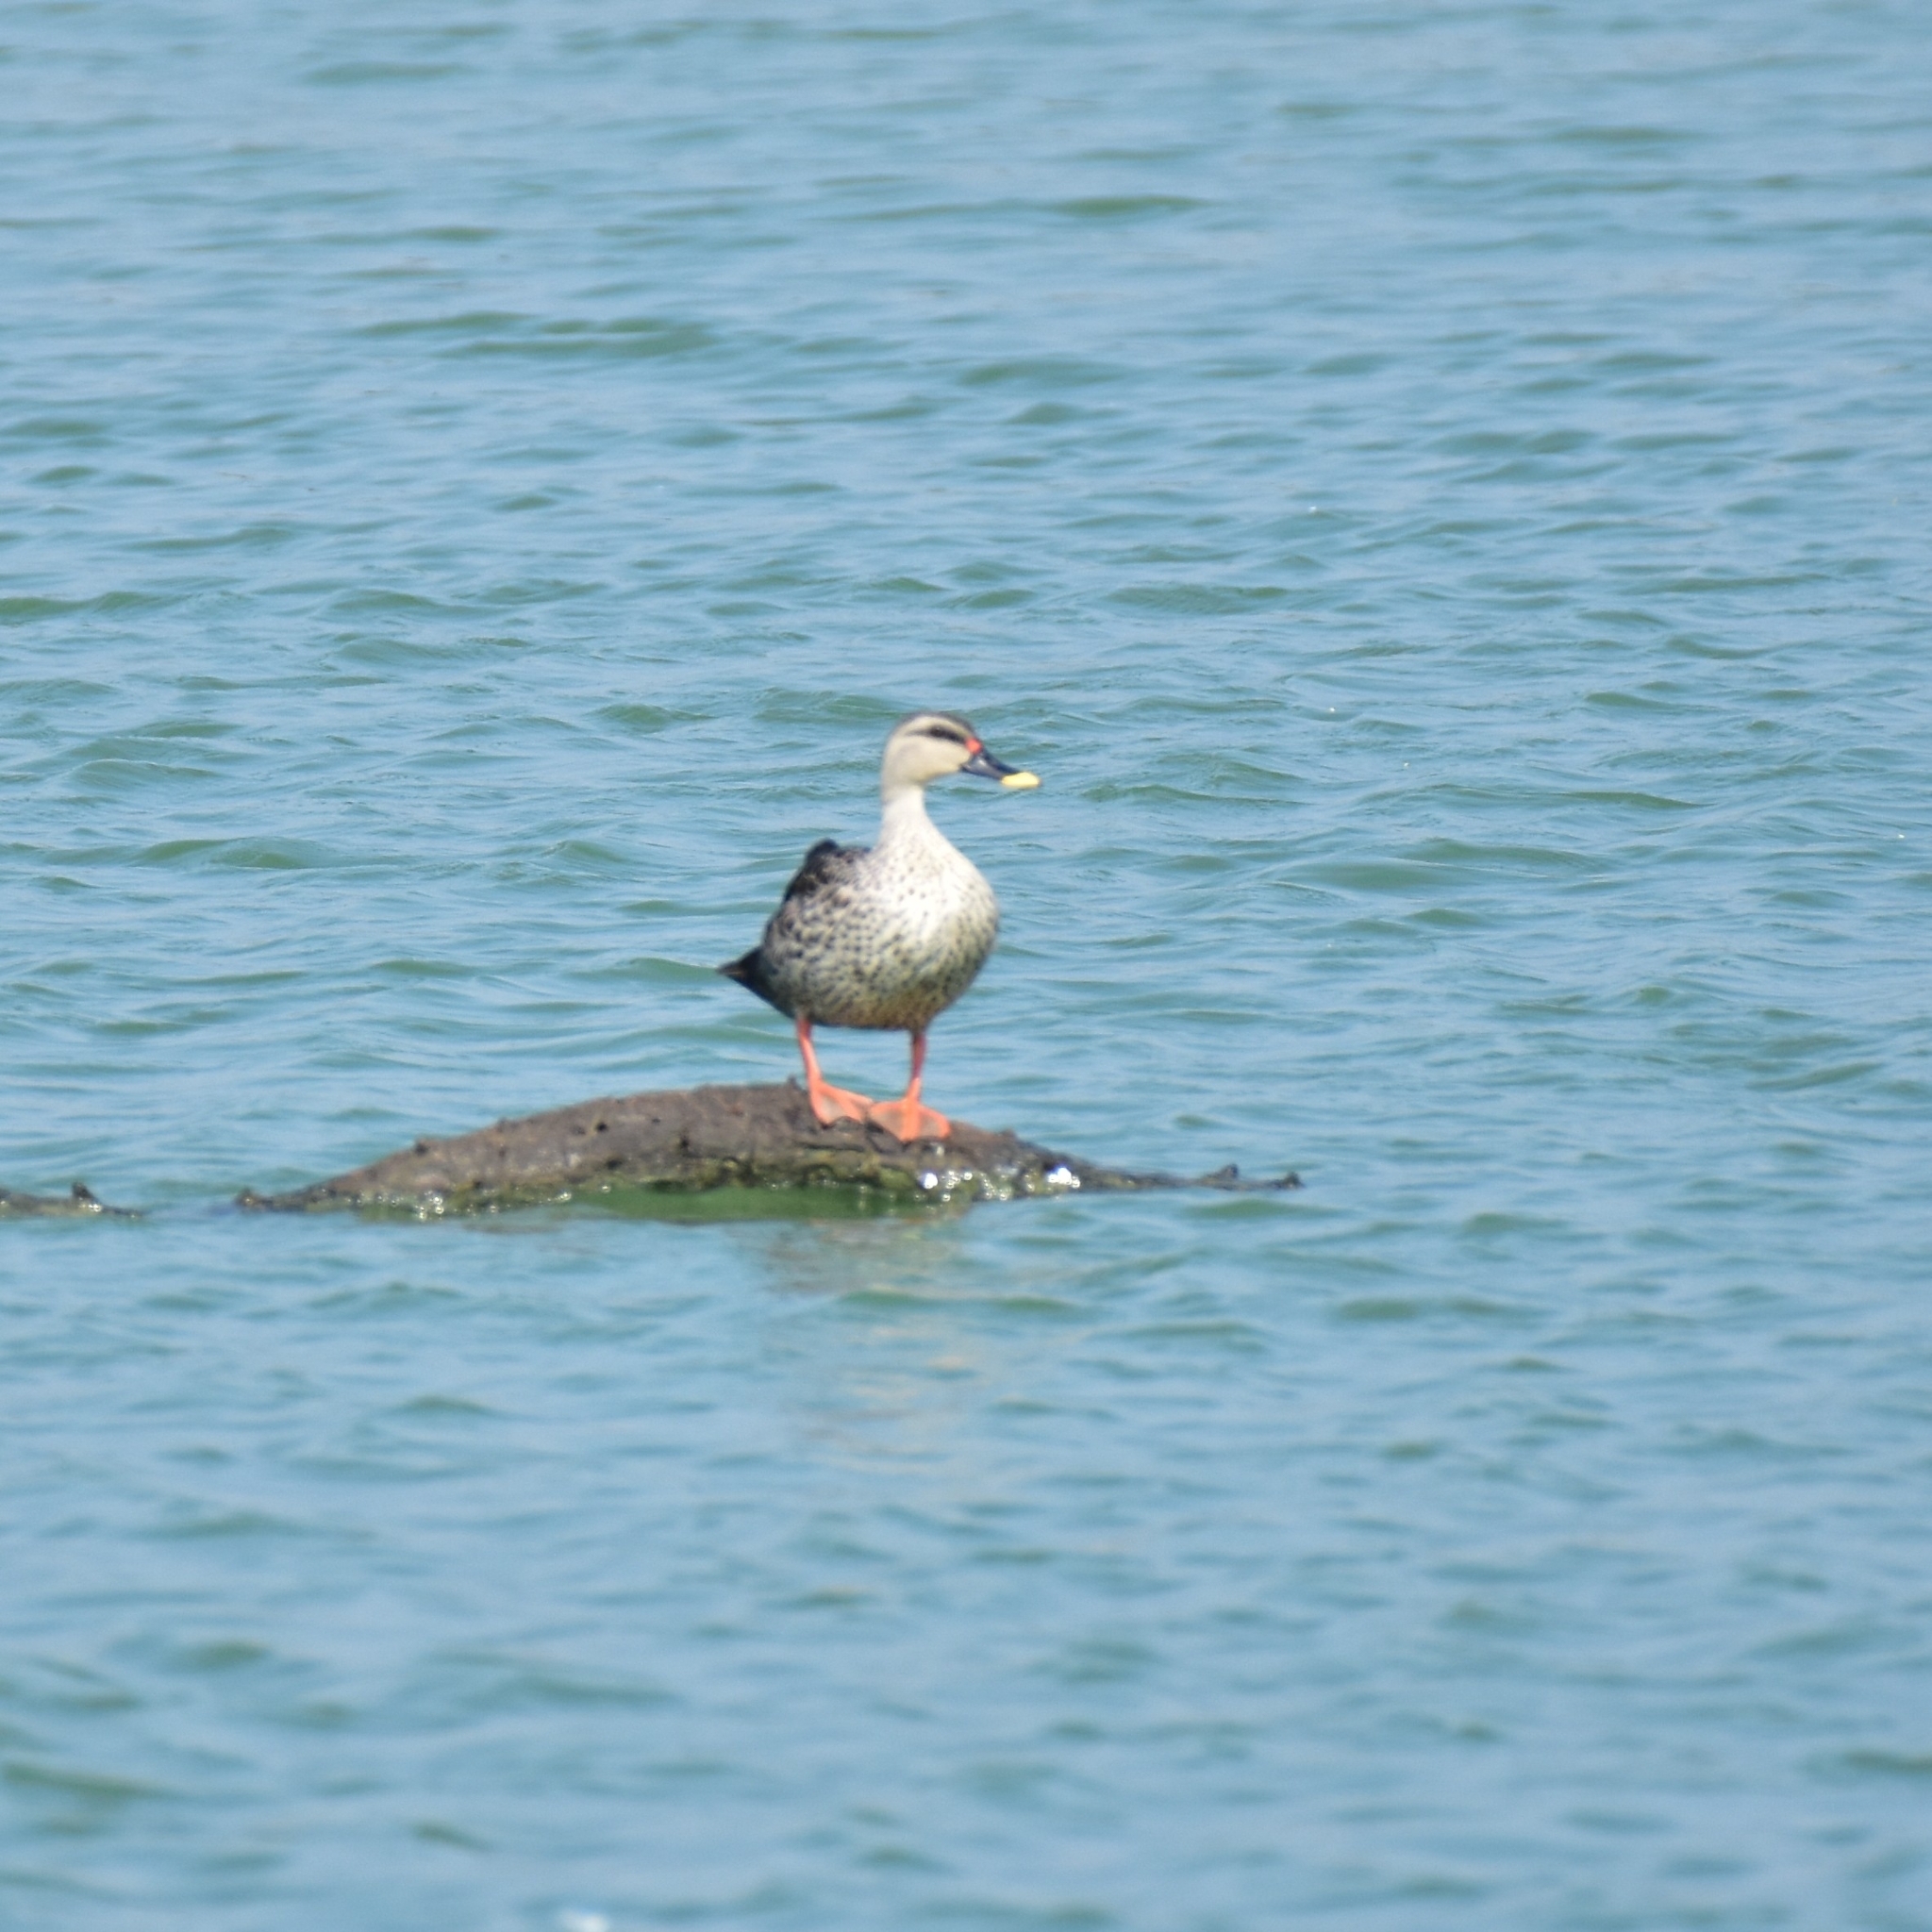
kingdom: Animalia
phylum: Chordata
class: Aves
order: Anseriformes
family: Anatidae
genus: Anas
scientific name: Anas poecilorhyncha
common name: Indian spot-billed duck
